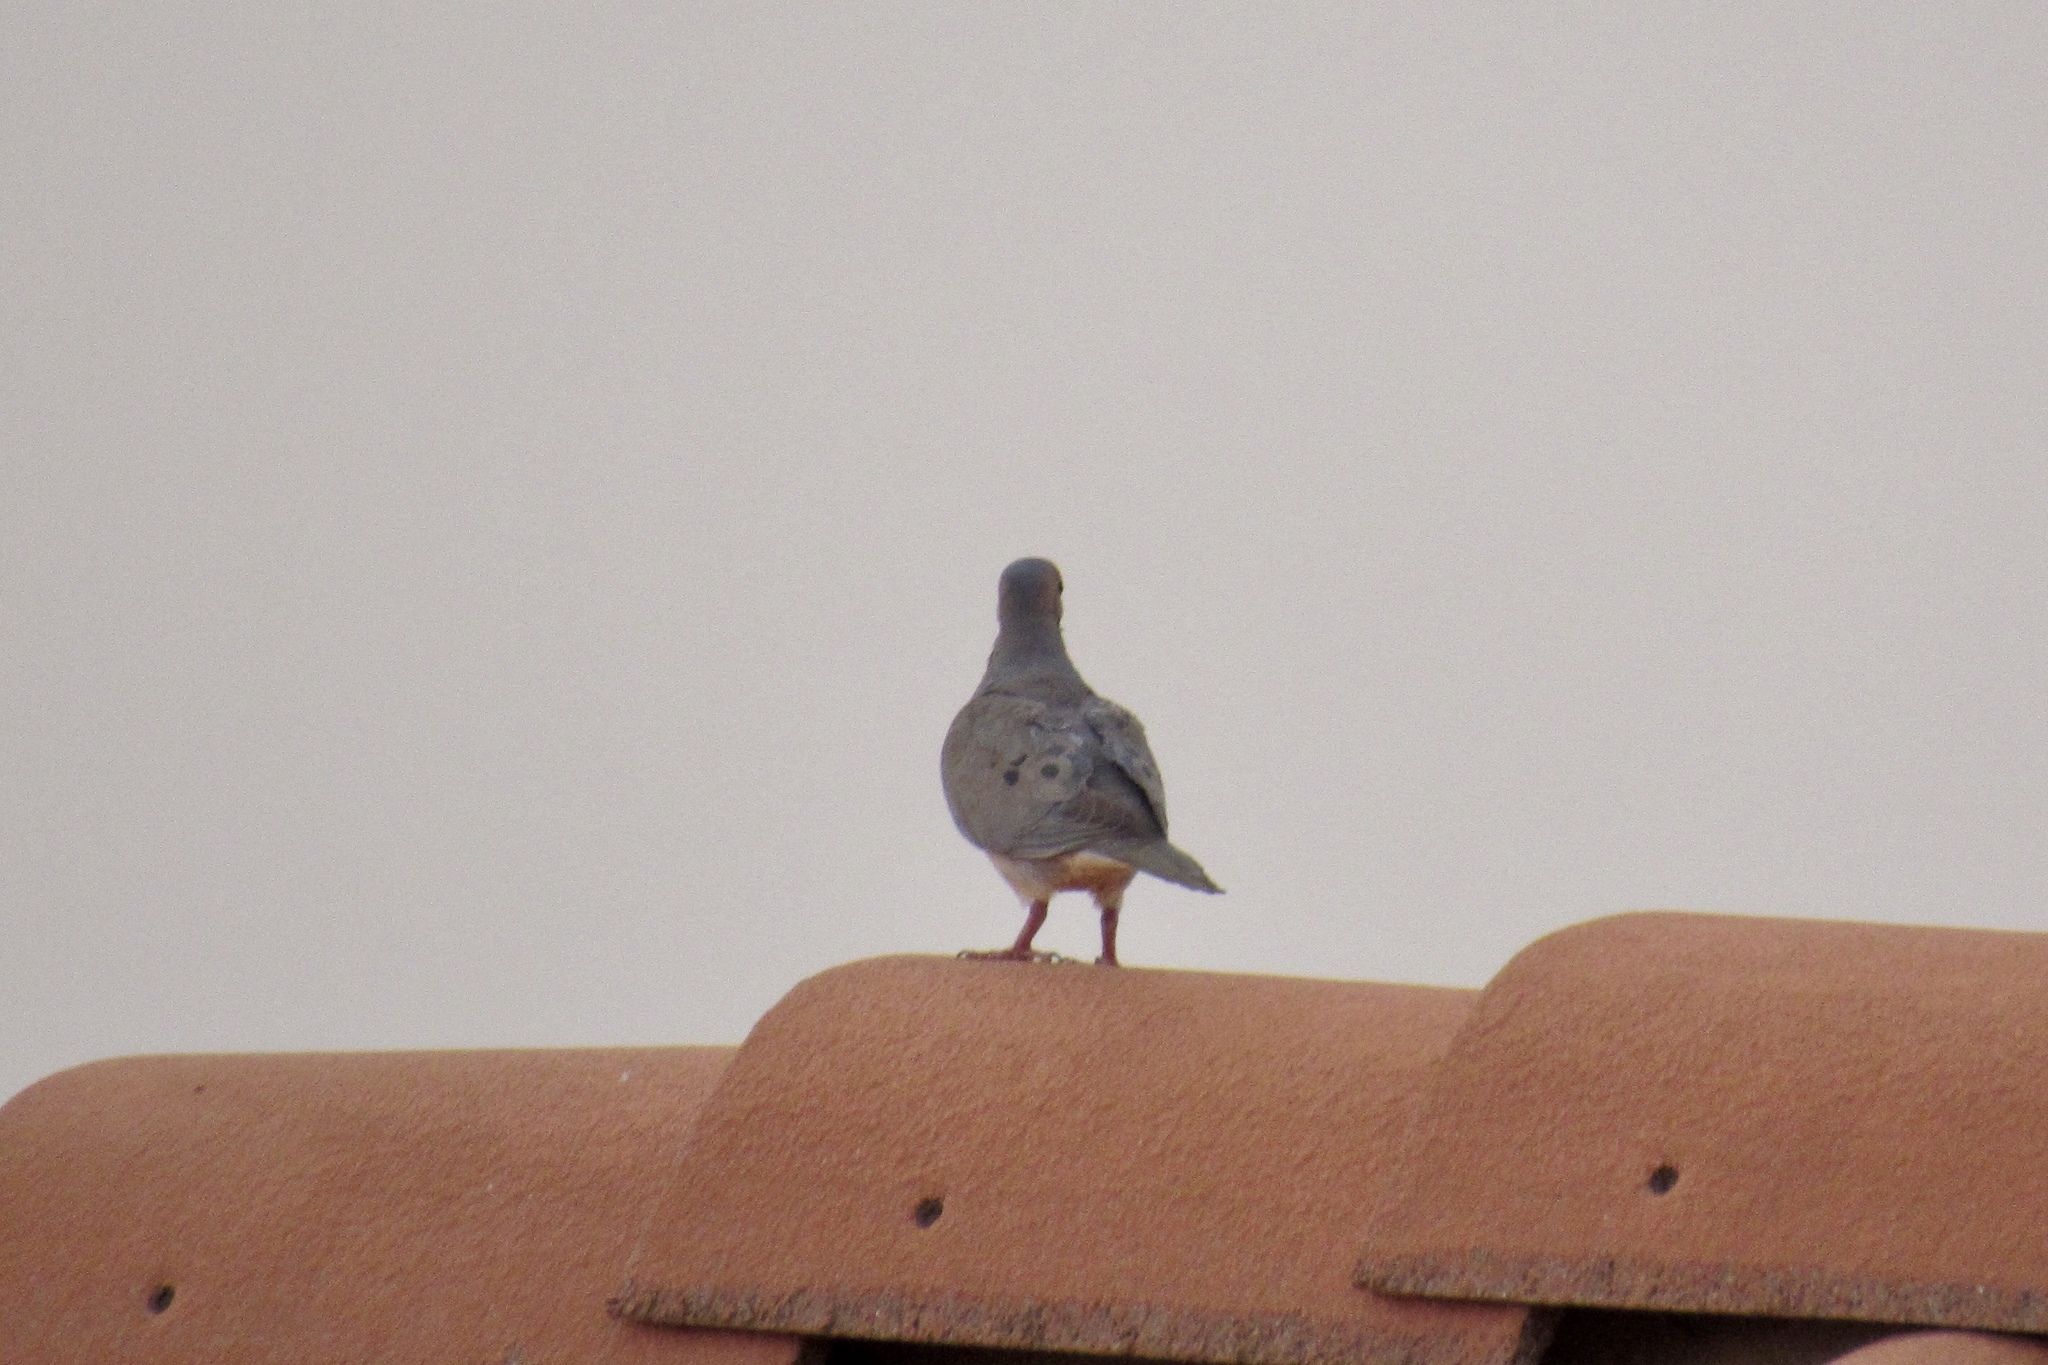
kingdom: Animalia
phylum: Chordata
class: Aves
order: Columbiformes
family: Columbidae
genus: Zenaida
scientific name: Zenaida macroura
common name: Mourning dove
